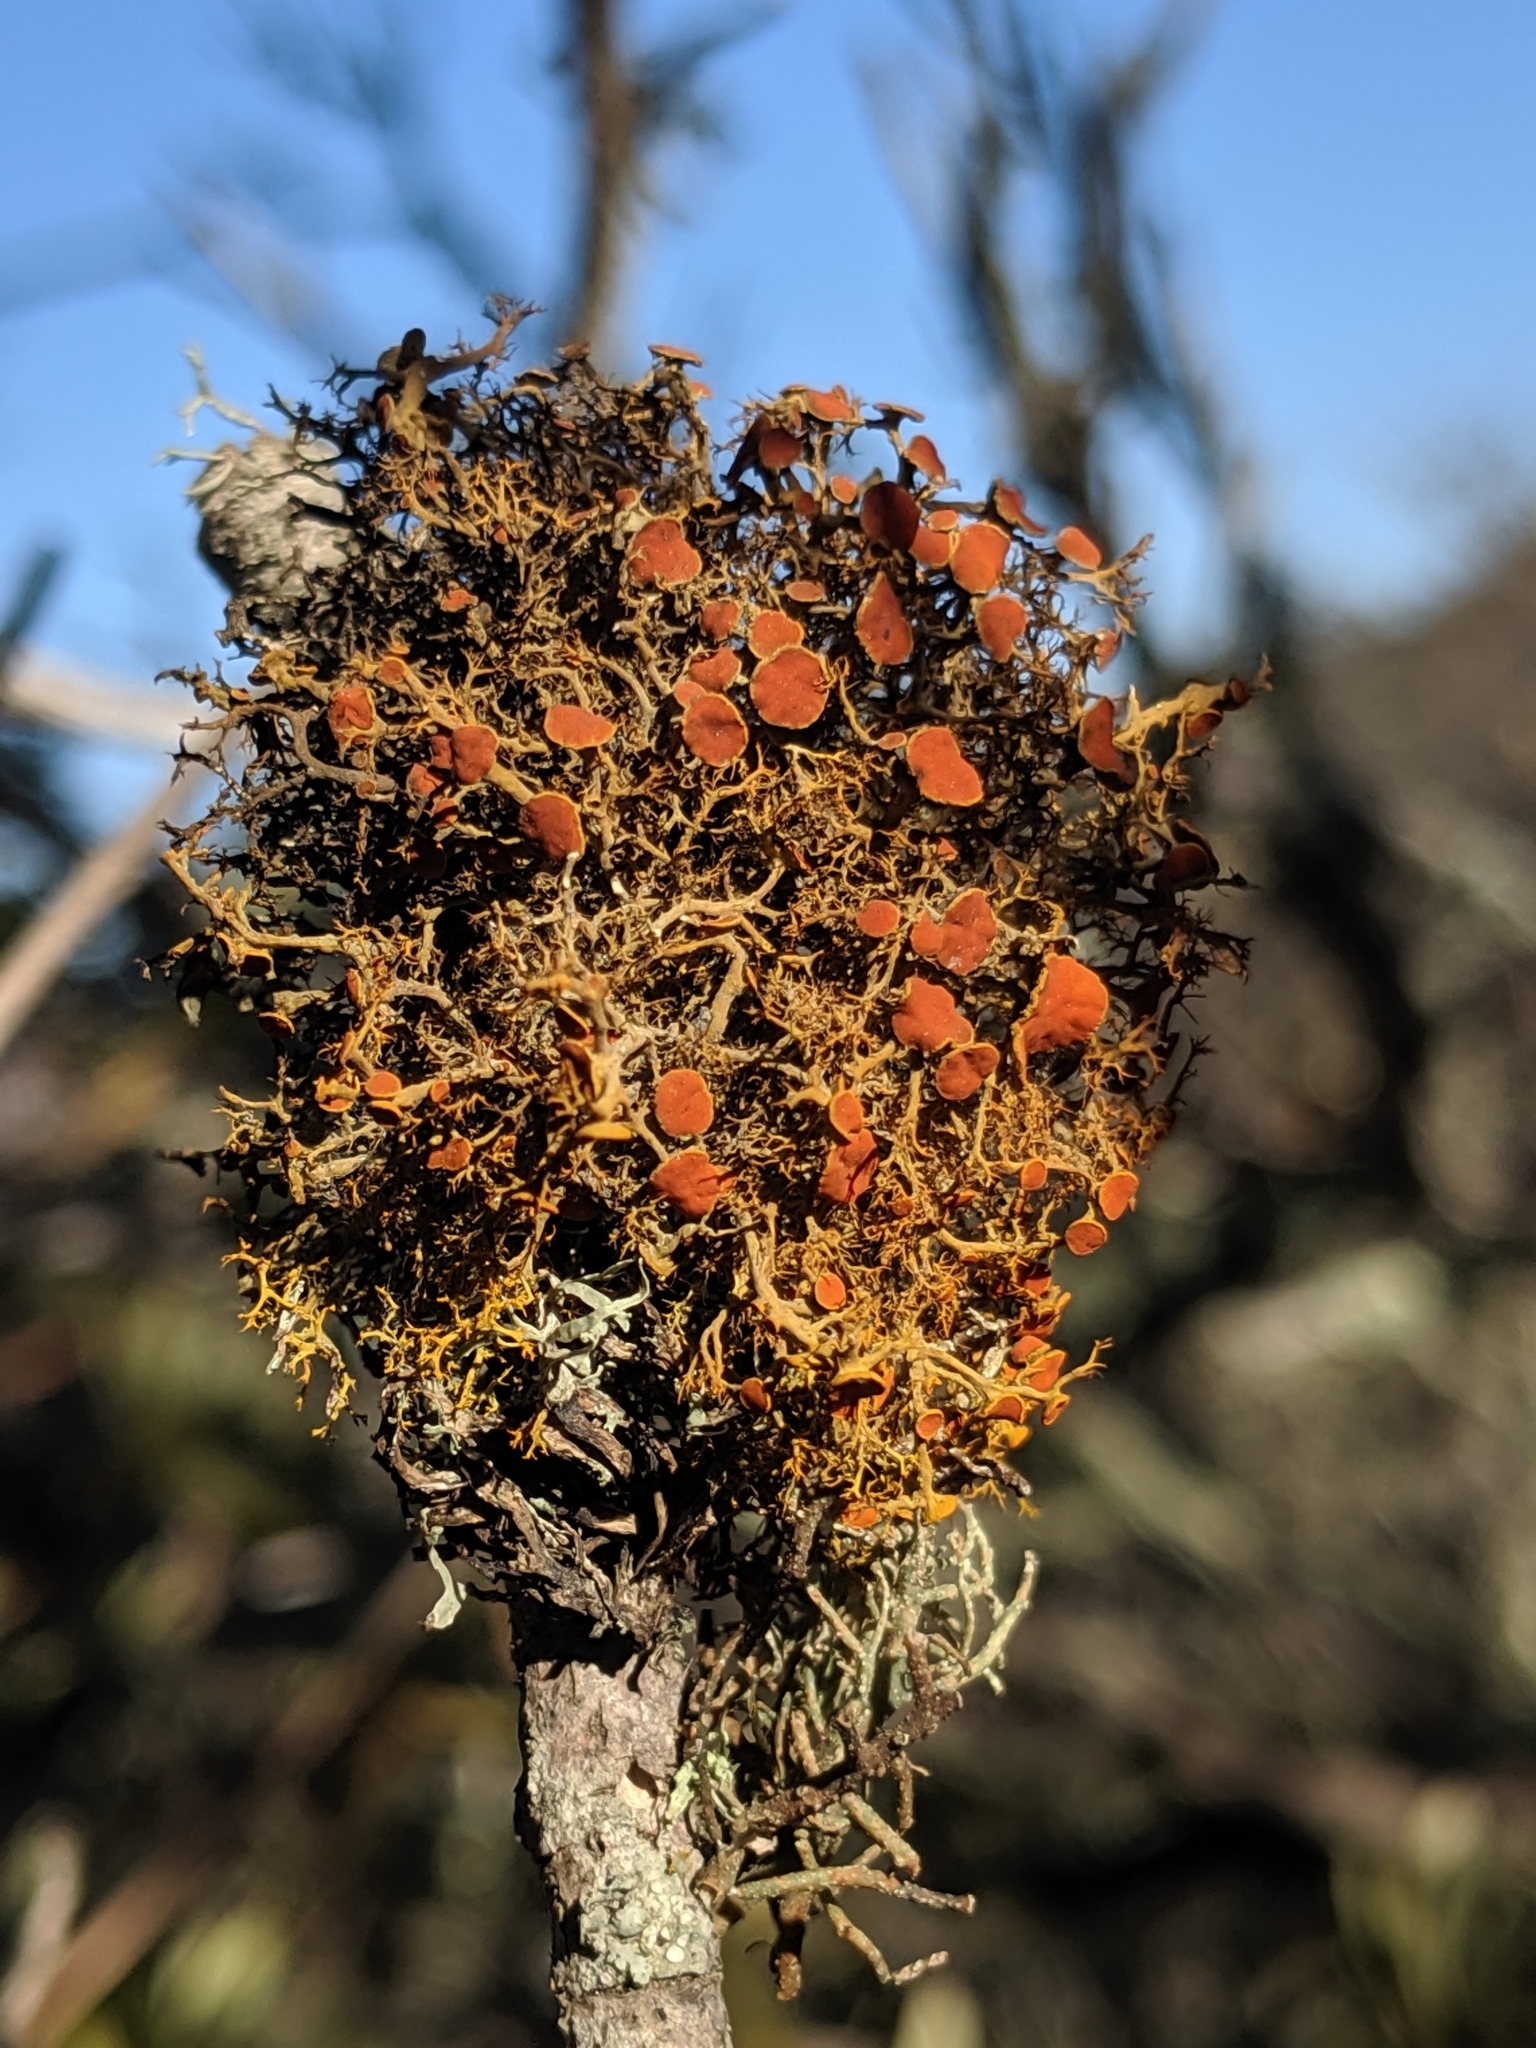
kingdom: Fungi
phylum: Ascomycota
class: Lecanoromycetes
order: Teloschistales
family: Teloschistaceae
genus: Teloschistes
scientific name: Teloschistes flavicans
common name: Golden hair-lichen
